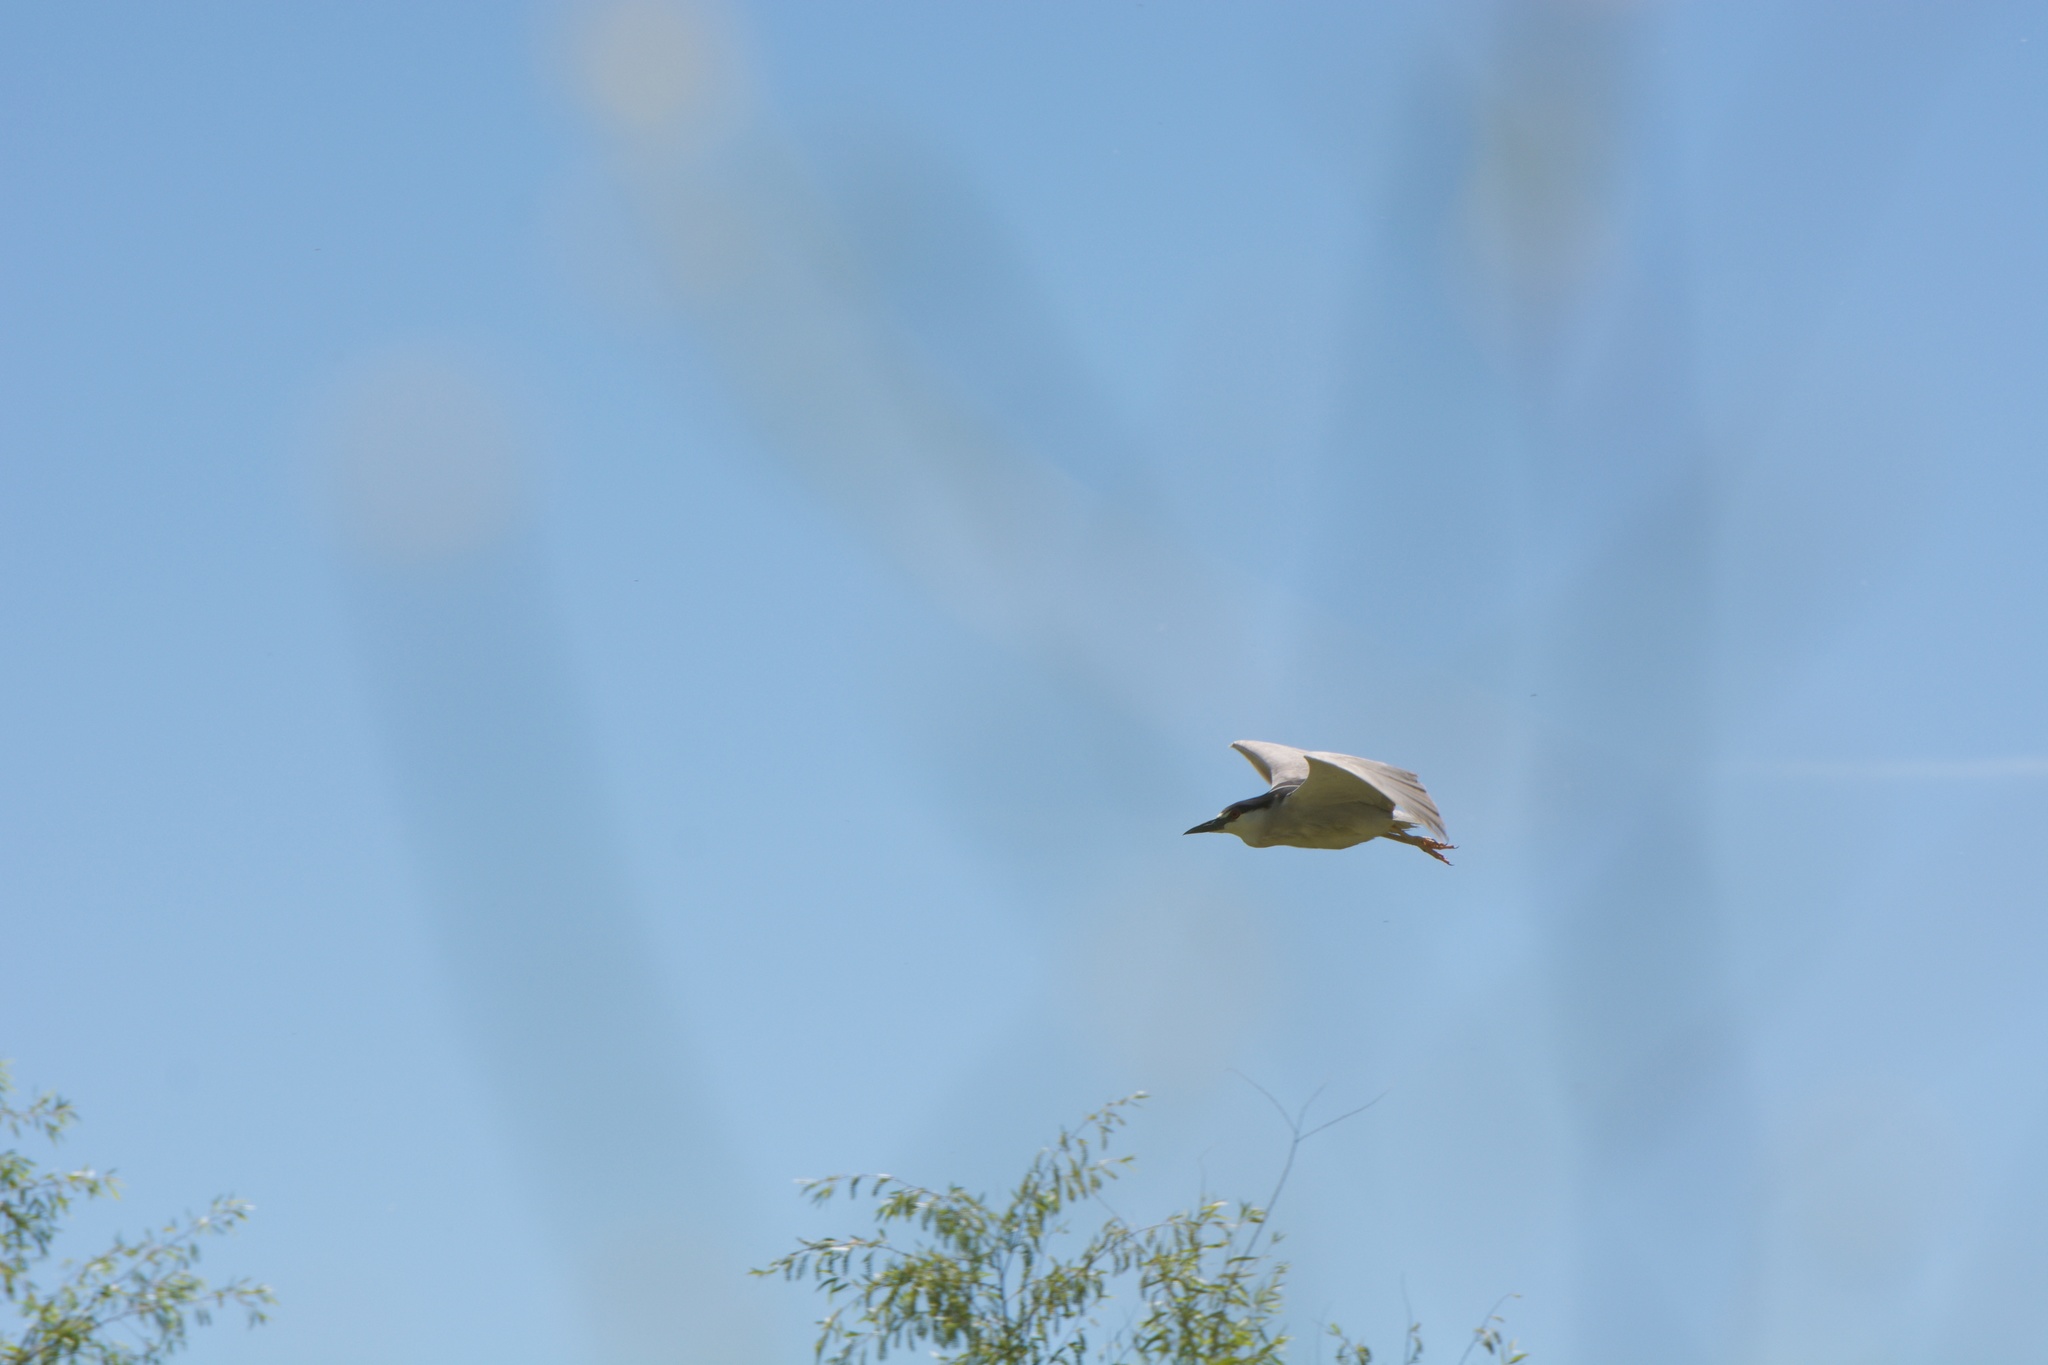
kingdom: Animalia
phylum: Chordata
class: Aves
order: Pelecaniformes
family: Ardeidae
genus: Nycticorax
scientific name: Nycticorax nycticorax
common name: Black-crowned night heron
